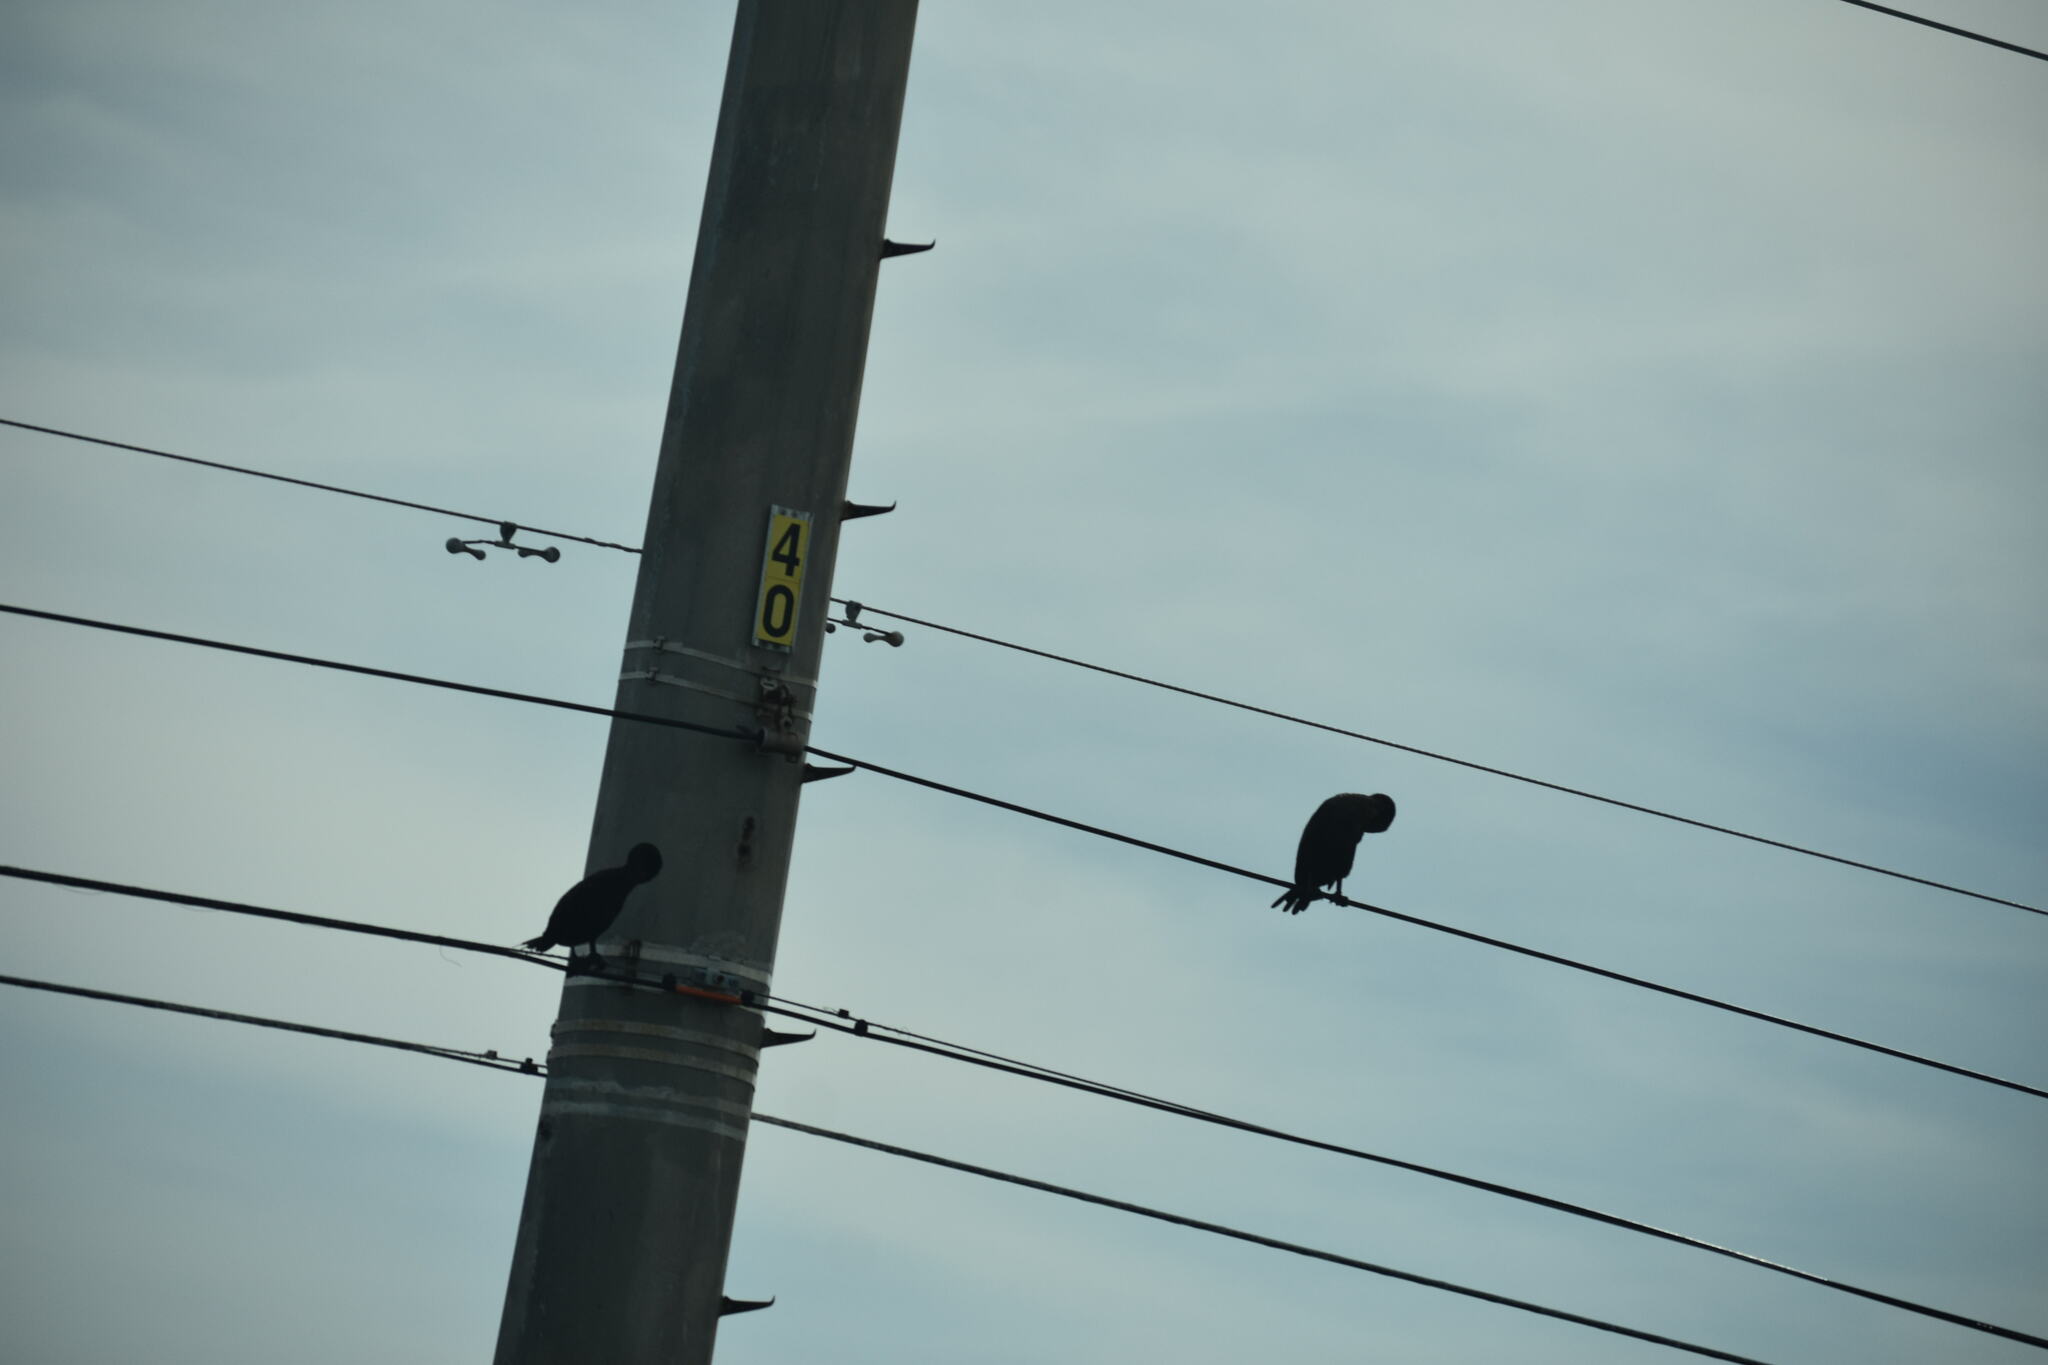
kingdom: Animalia
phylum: Chordata
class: Aves
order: Suliformes
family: Phalacrocoracidae
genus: Phalacrocorax
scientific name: Phalacrocorax auritus
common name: Double-crested cormorant
